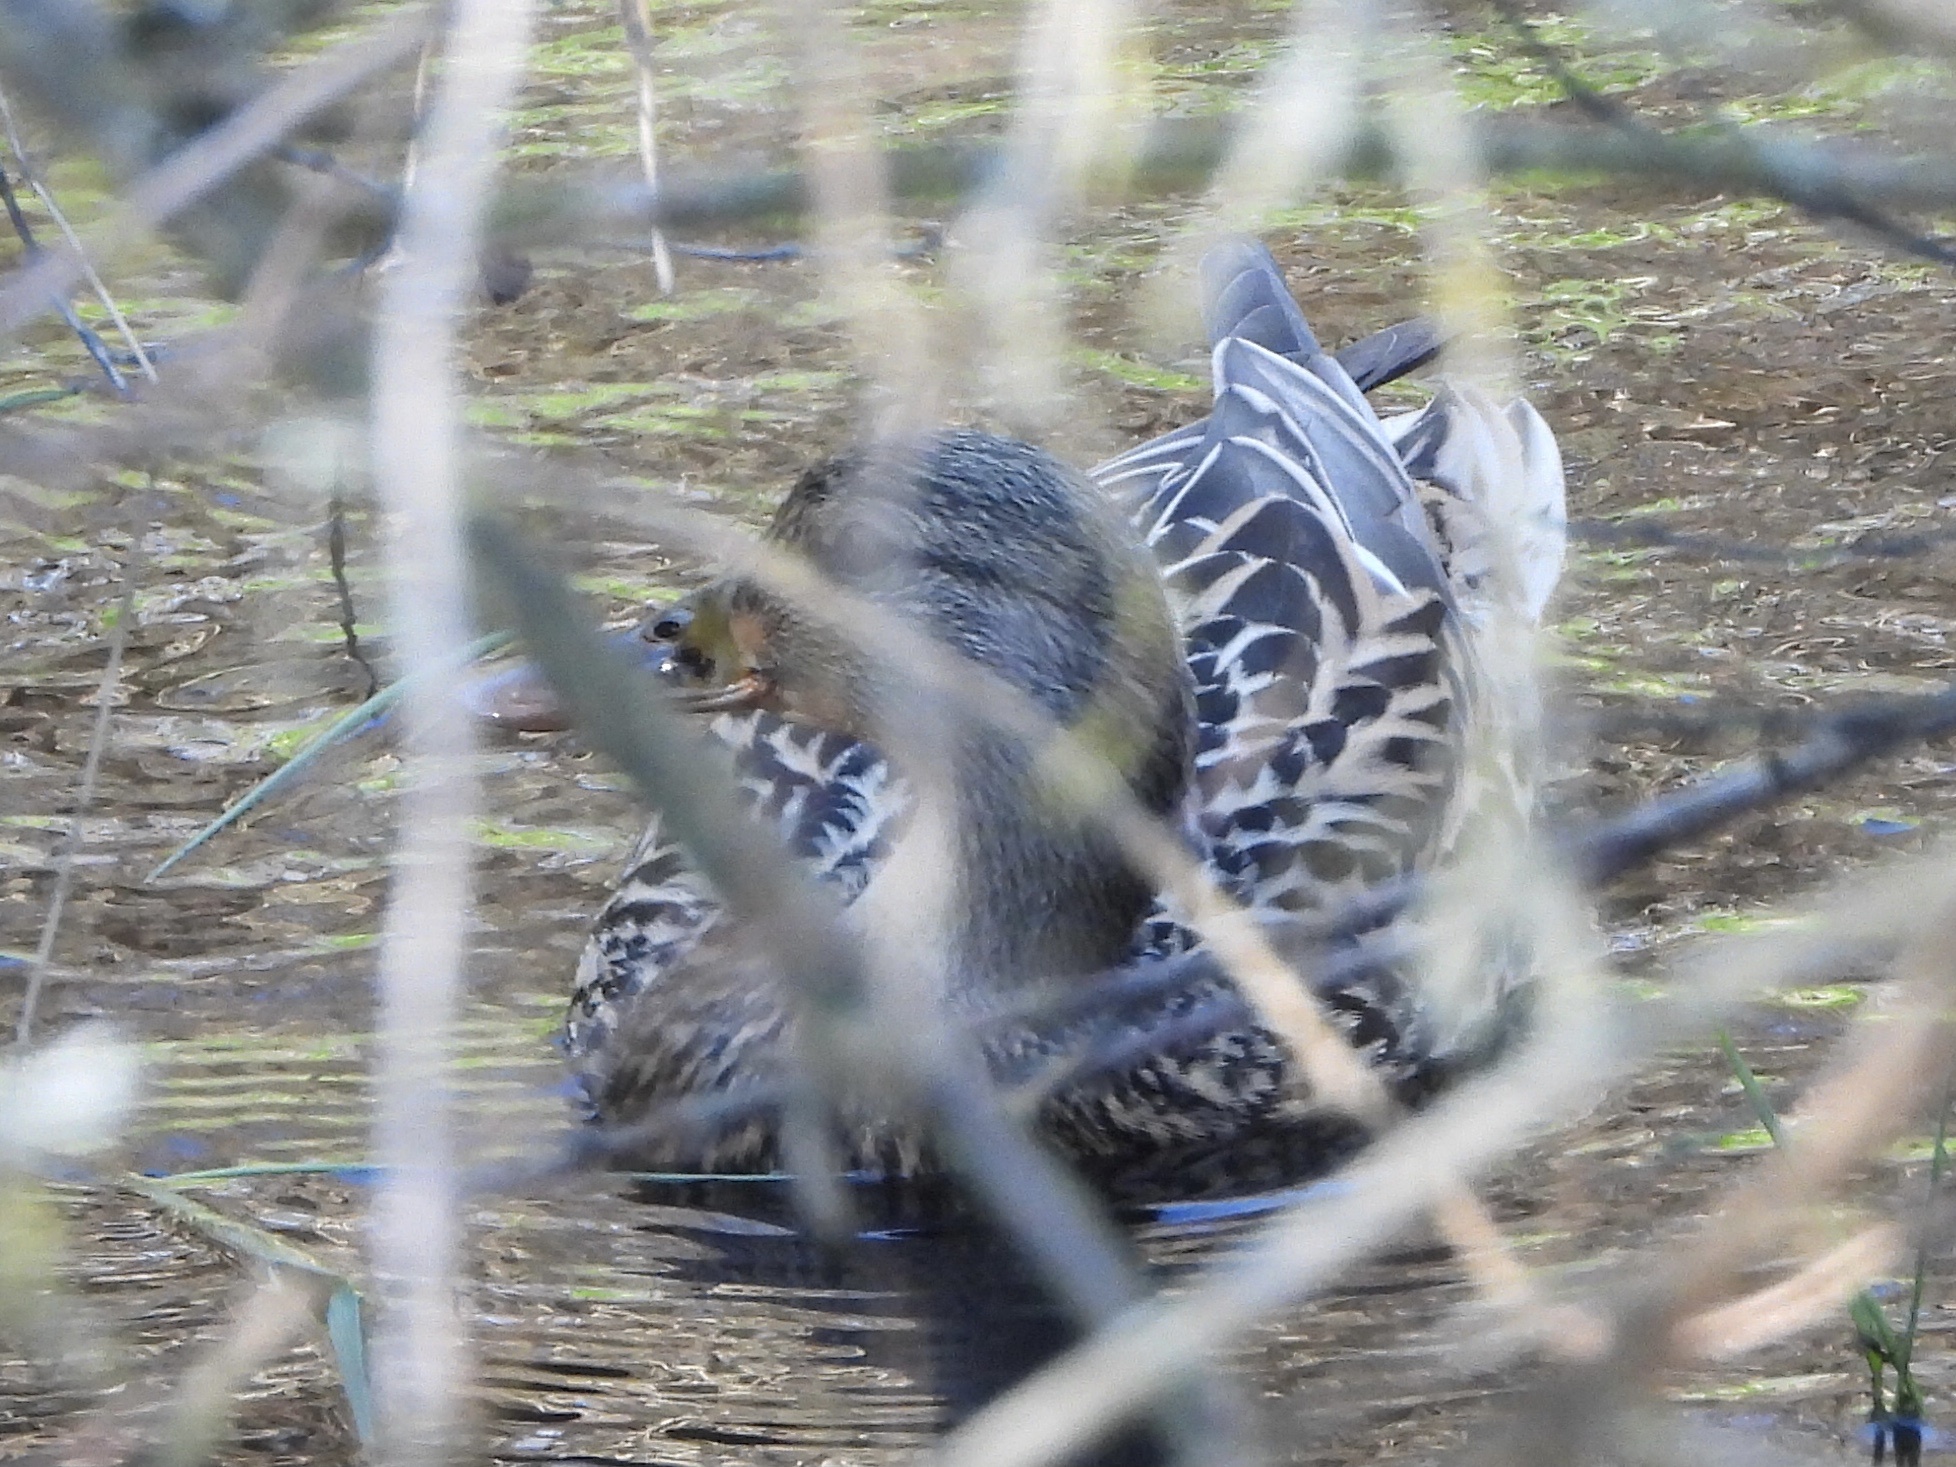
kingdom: Animalia
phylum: Chordata
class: Aves
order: Anseriformes
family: Anatidae
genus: Anas
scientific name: Anas platyrhynchos
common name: Mallard
